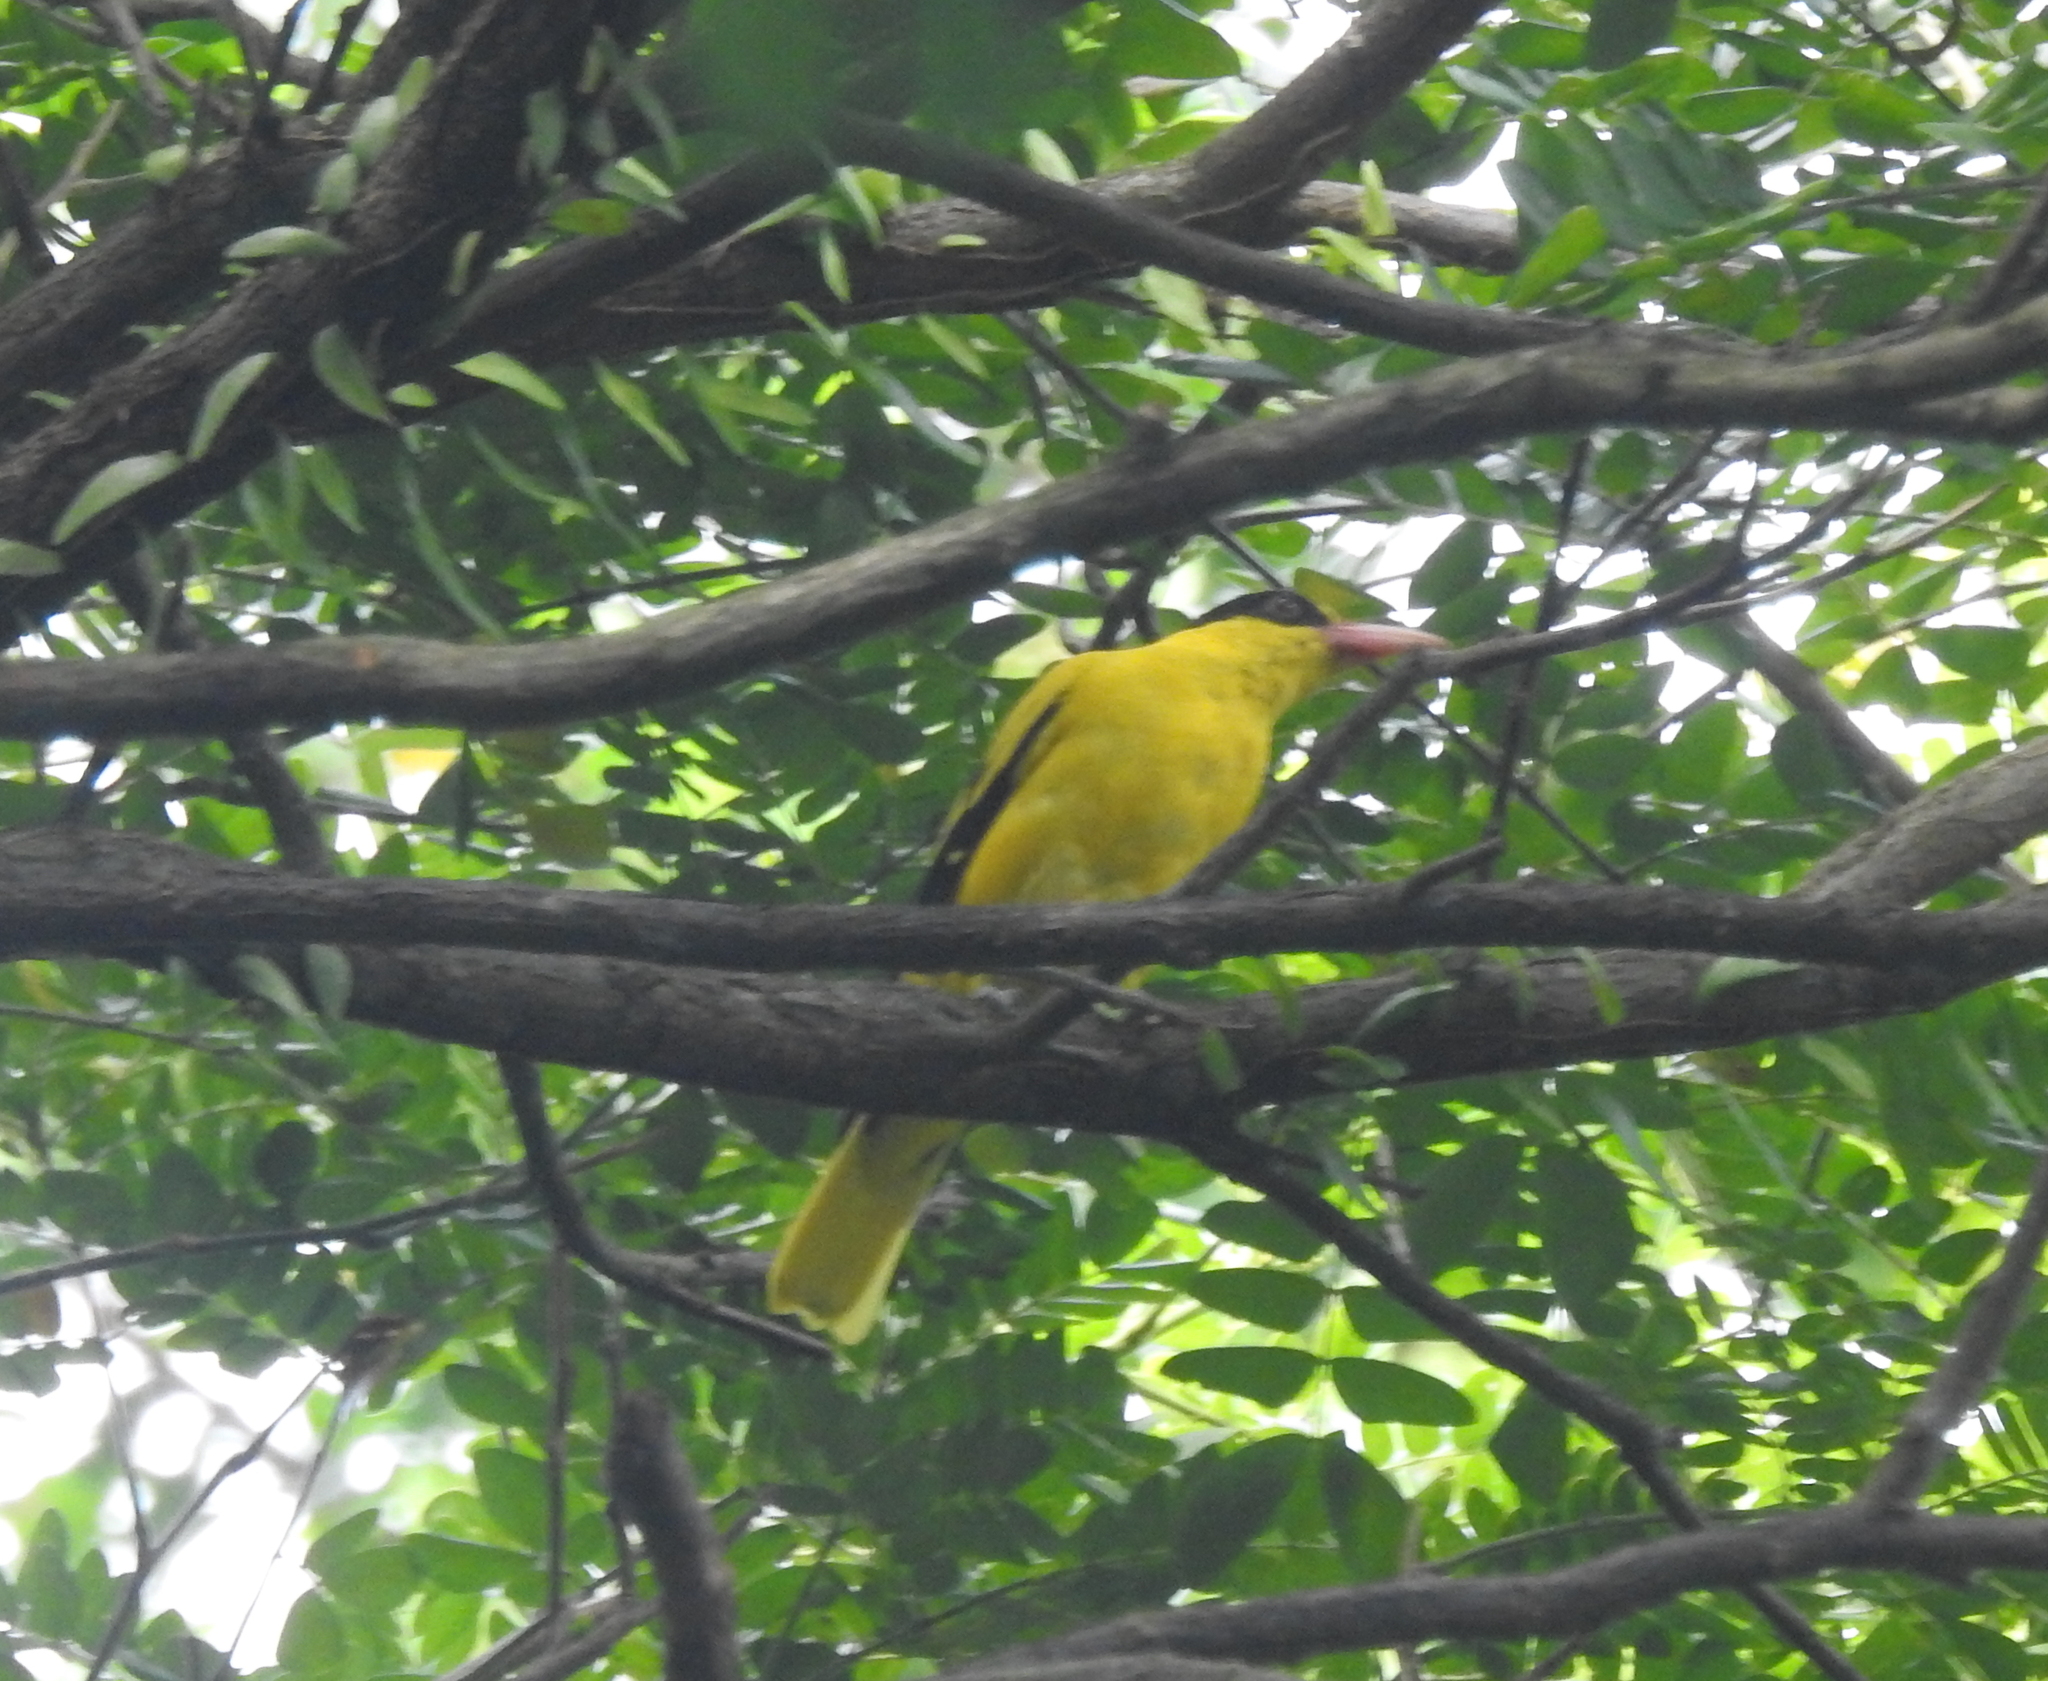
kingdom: Animalia
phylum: Chordata
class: Aves
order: Passeriformes
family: Oriolidae
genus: Oriolus
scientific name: Oriolus chinensis
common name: Black-naped oriole
